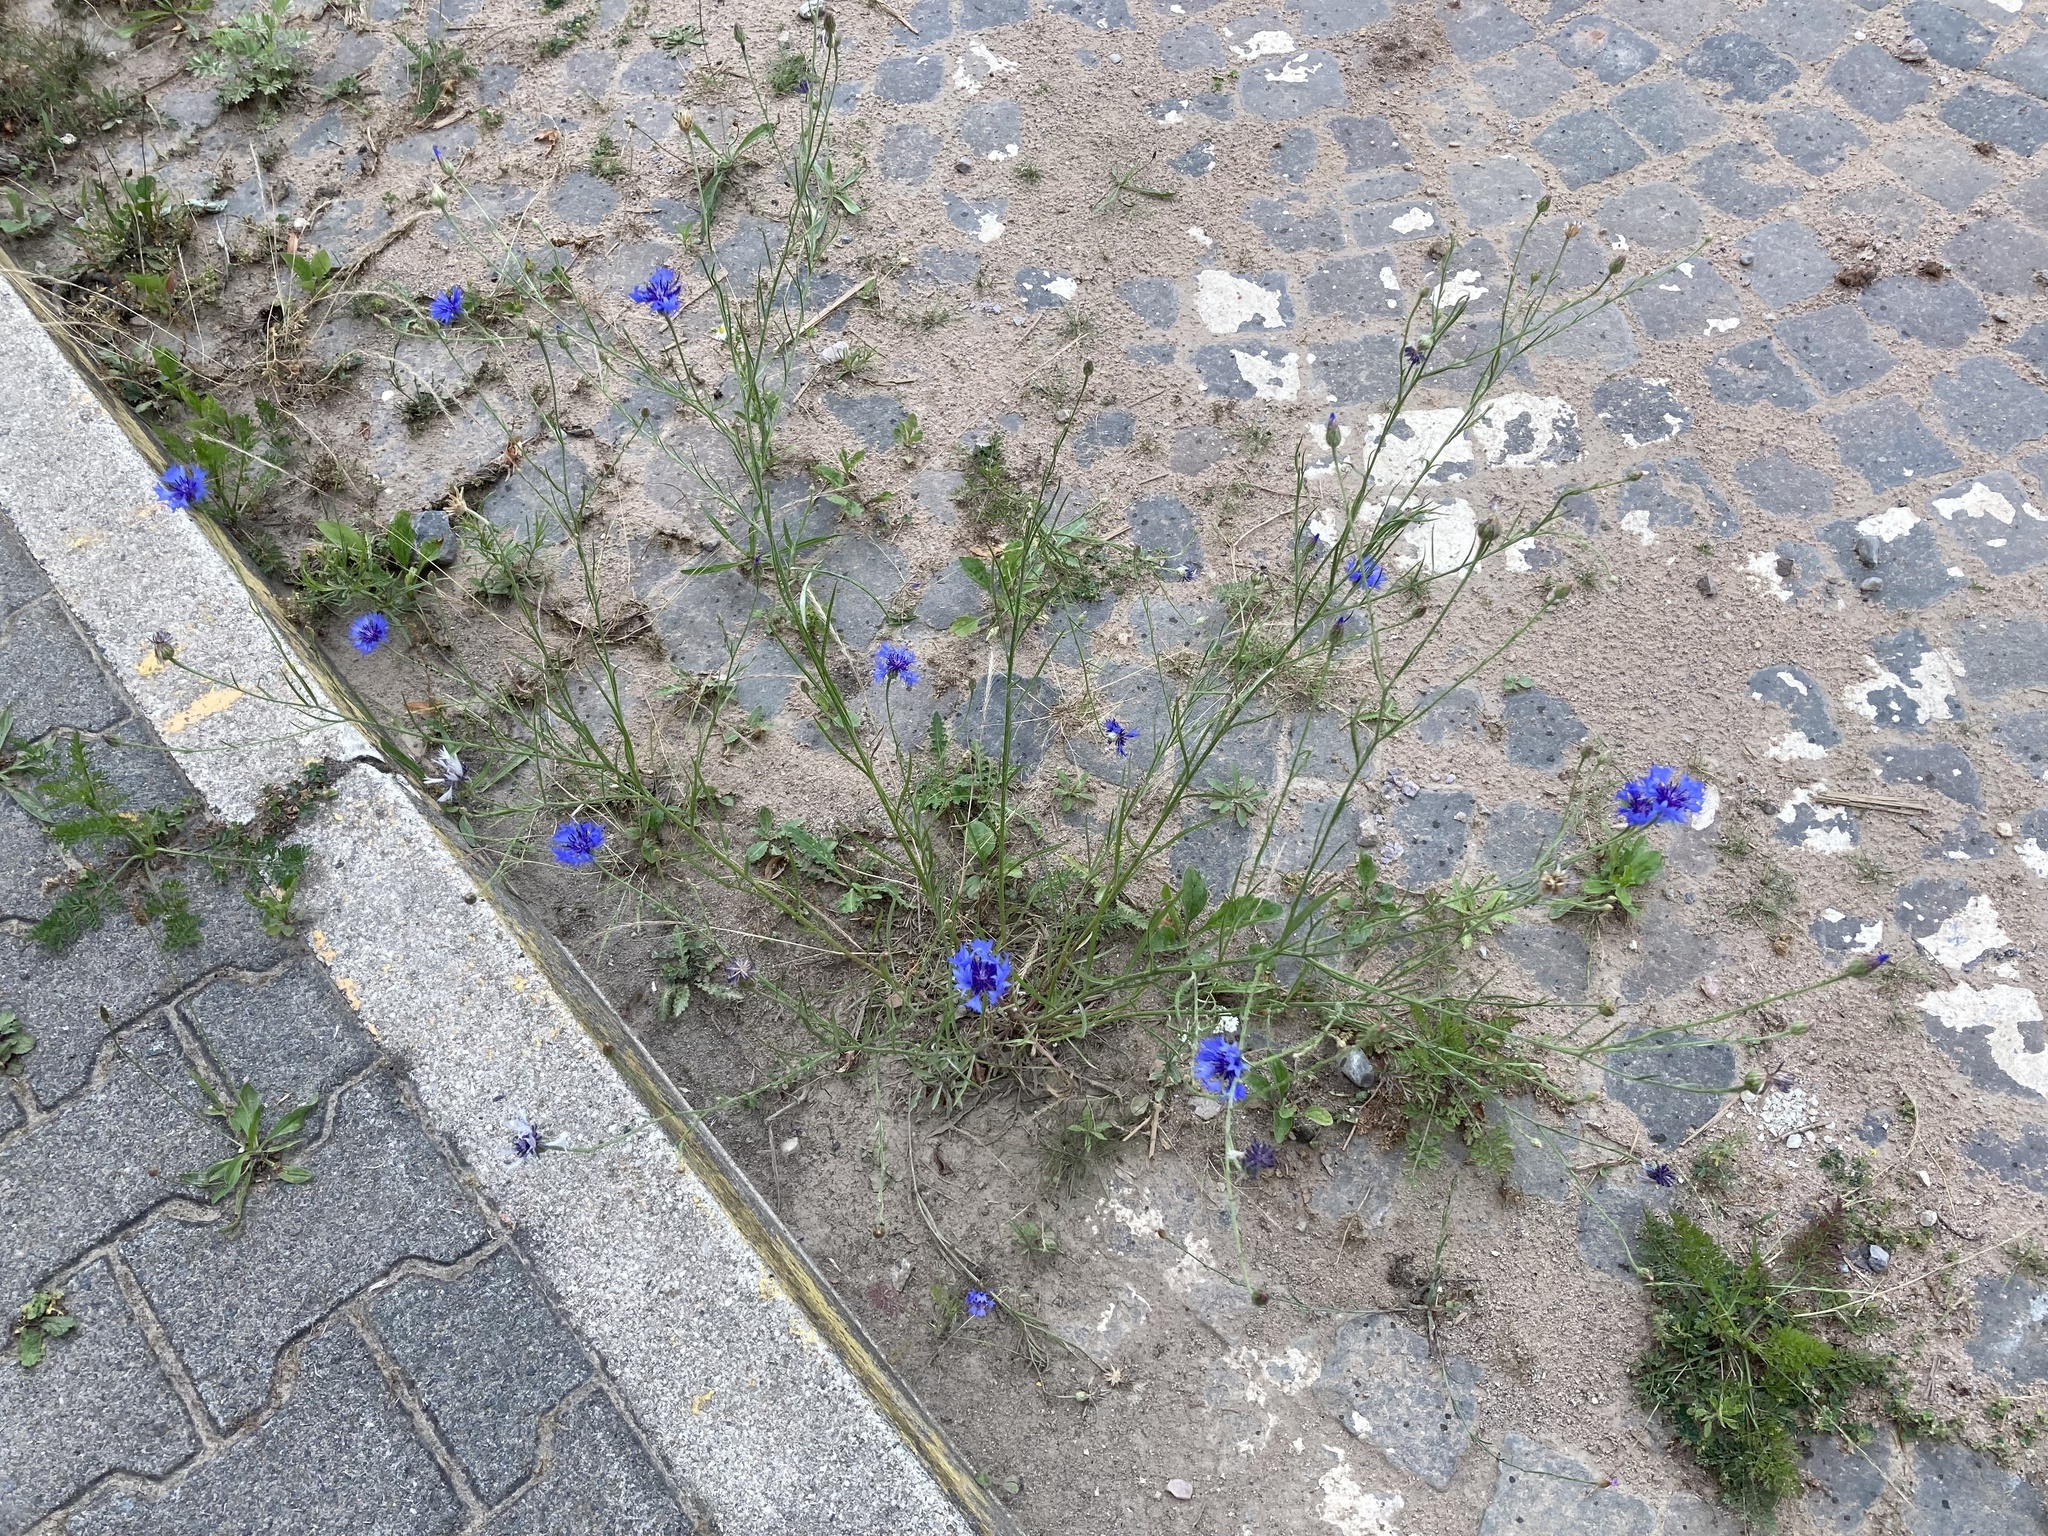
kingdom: Plantae
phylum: Tracheophyta
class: Magnoliopsida
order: Asterales
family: Asteraceae
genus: Centaurea
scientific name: Centaurea cyanus
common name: Cornflower
